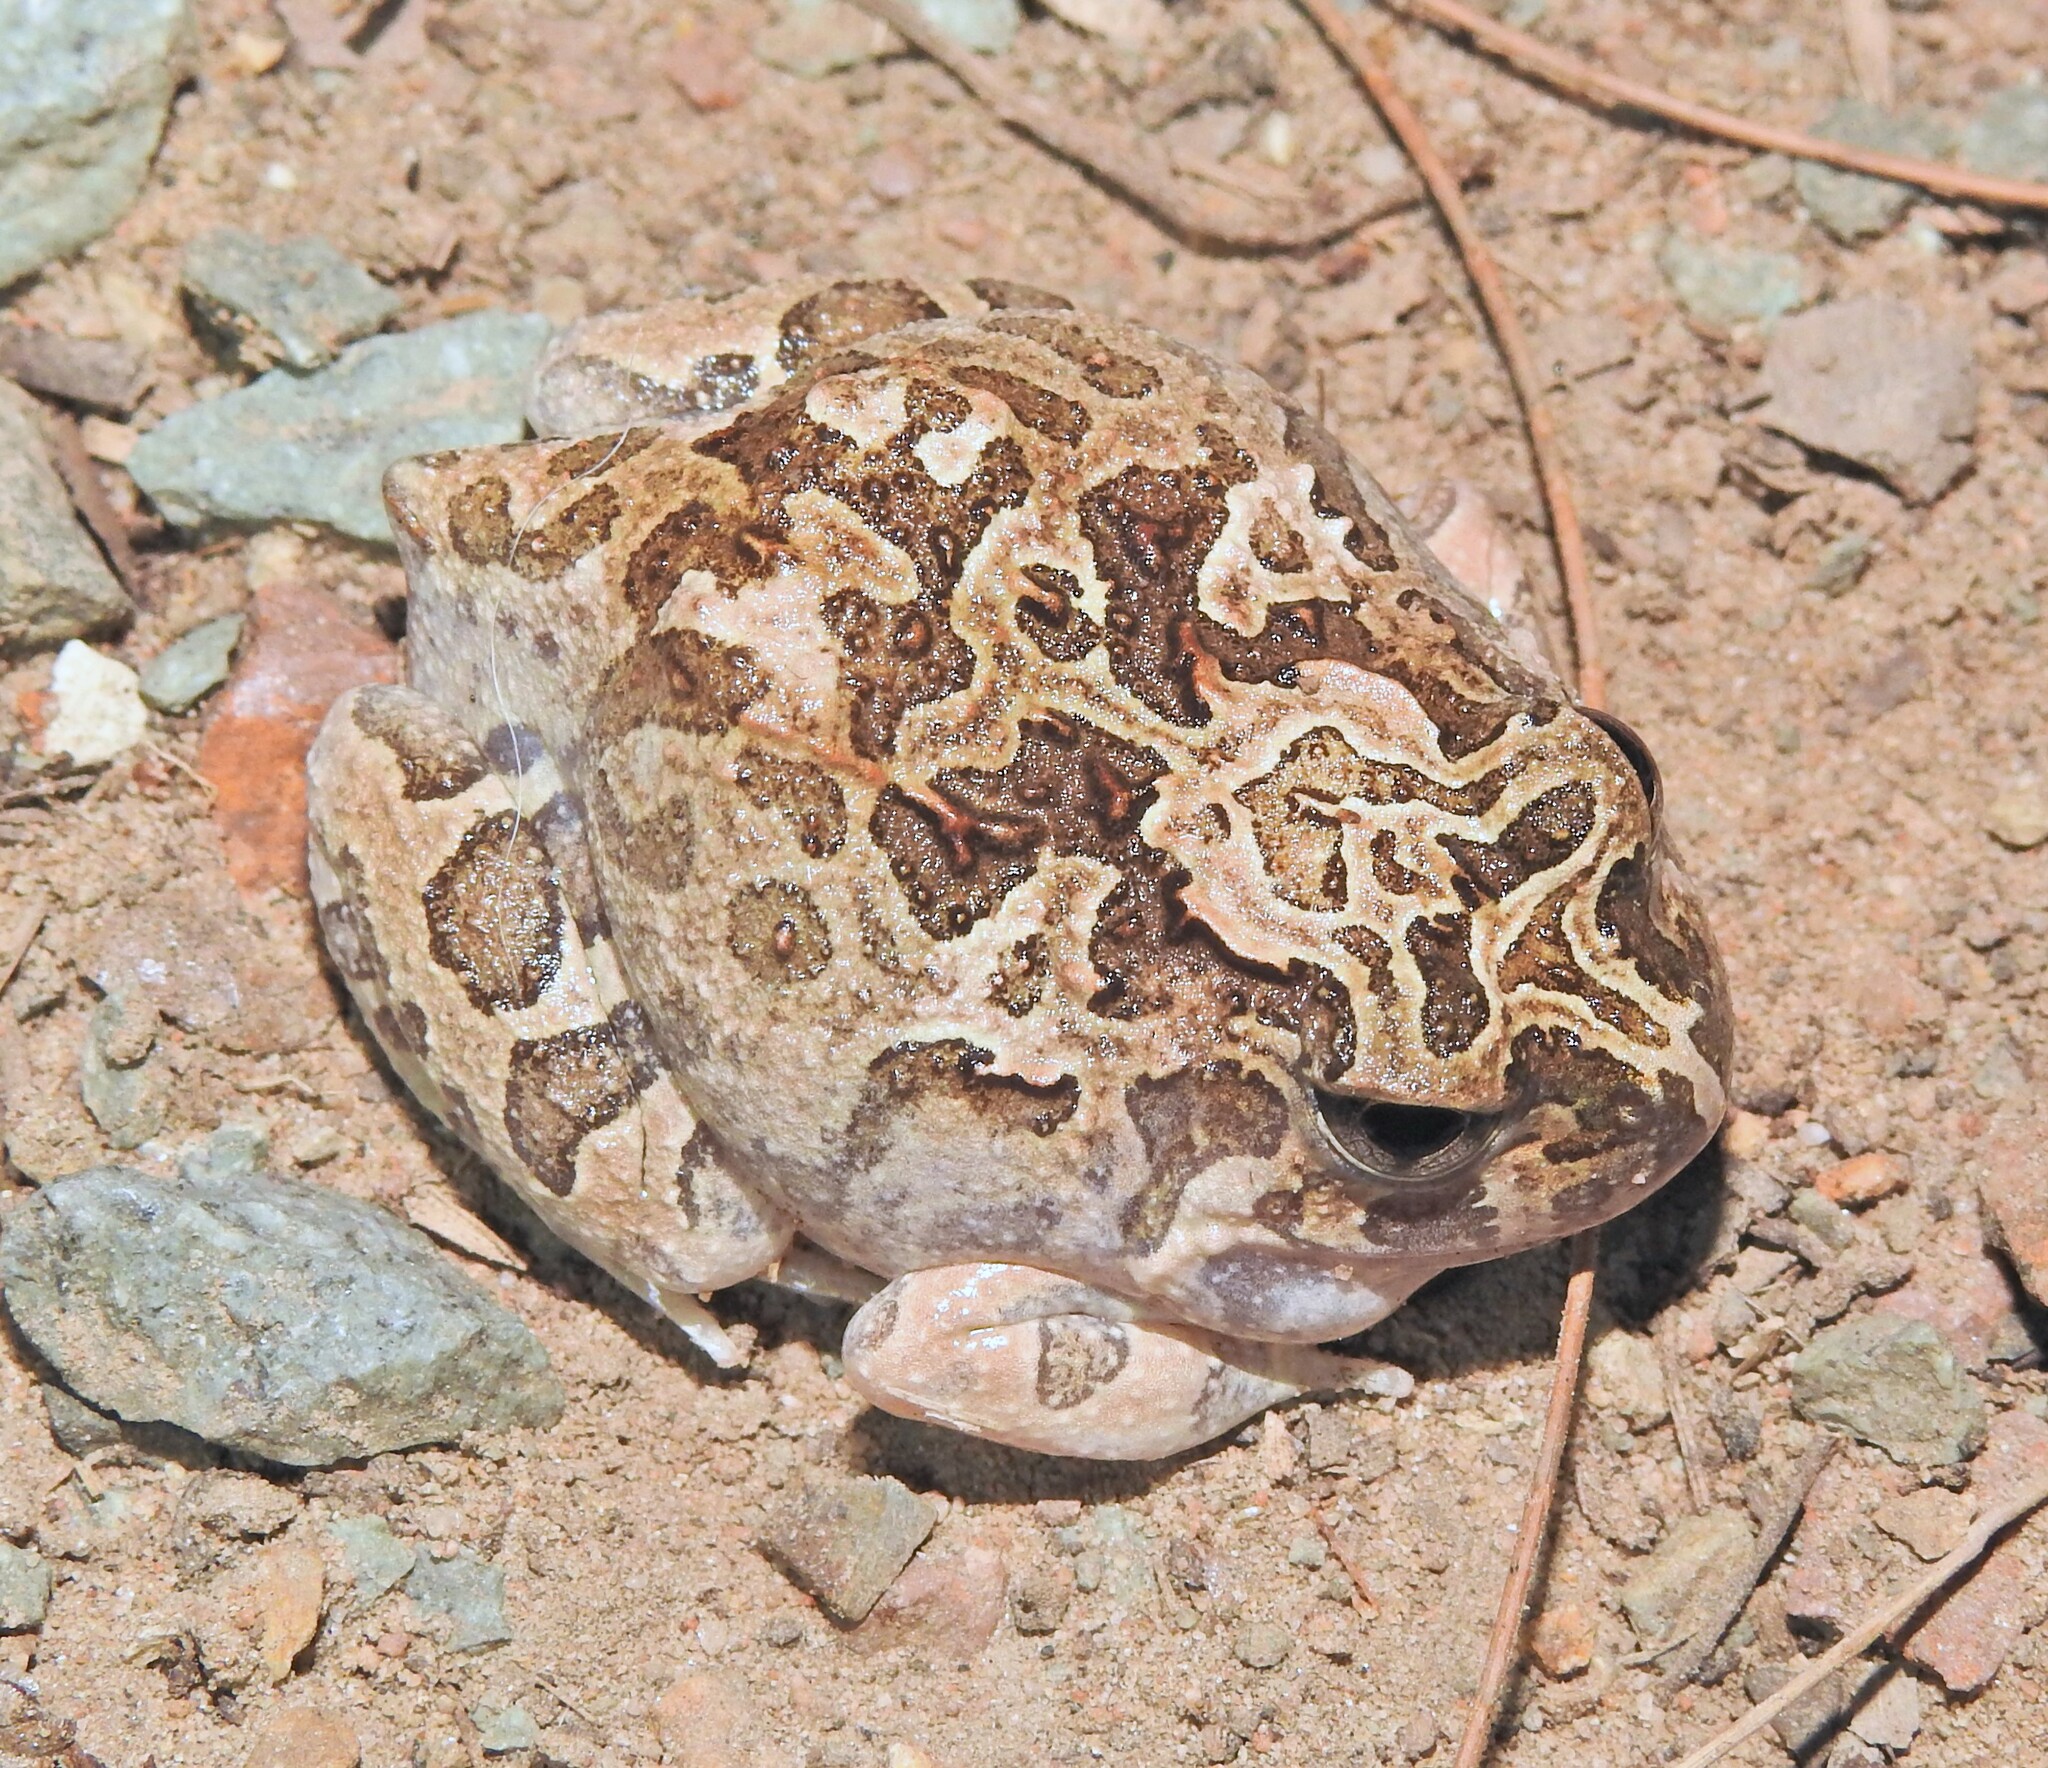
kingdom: Animalia
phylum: Chordata
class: Amphibia
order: Anura
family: Limnodynastidae
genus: Platyplectrum
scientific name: Platyplectrum ornatum
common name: Ornate burrowing frog
